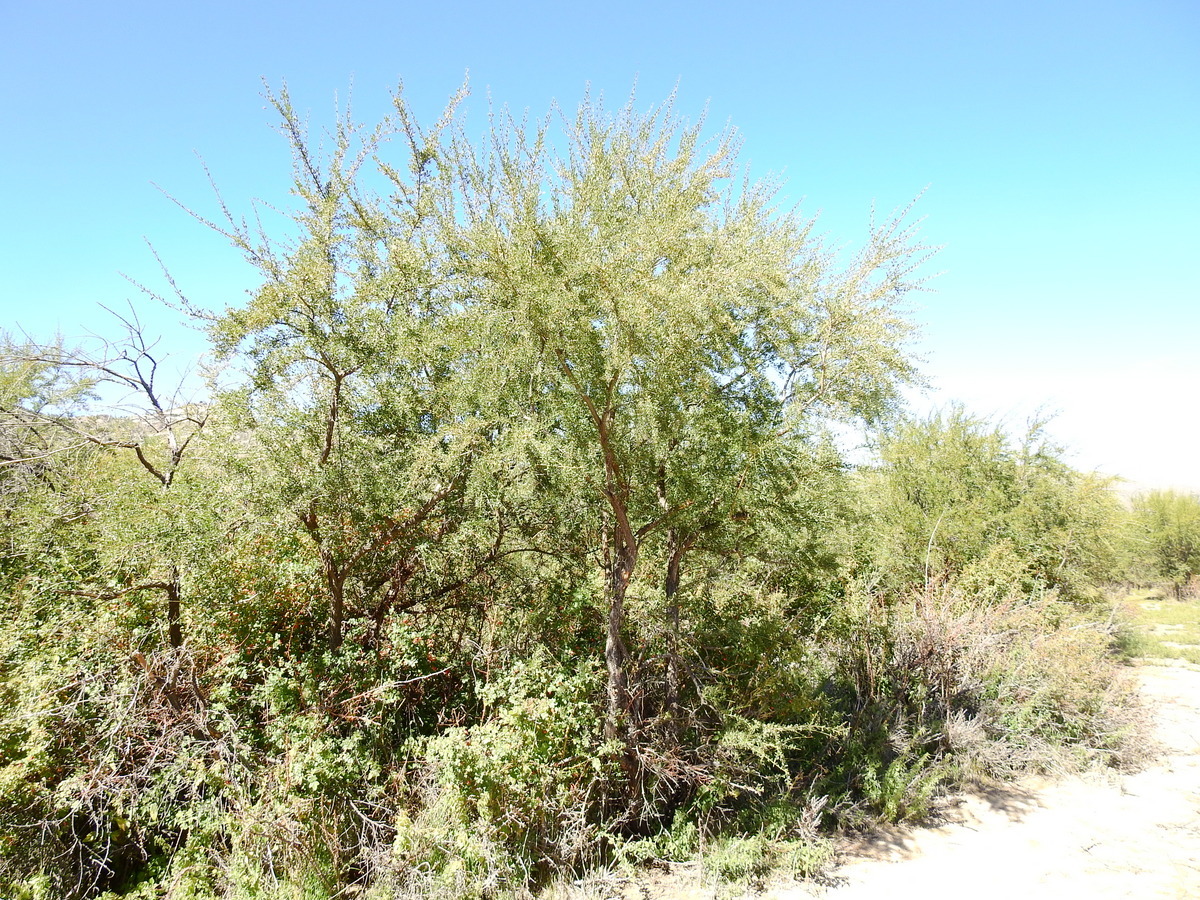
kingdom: Plantae
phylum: Tracheophyta
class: Magnoliopsida
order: Rosales
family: Rhamnaceae
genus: Ochetophila
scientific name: Ochetophila trinervis
